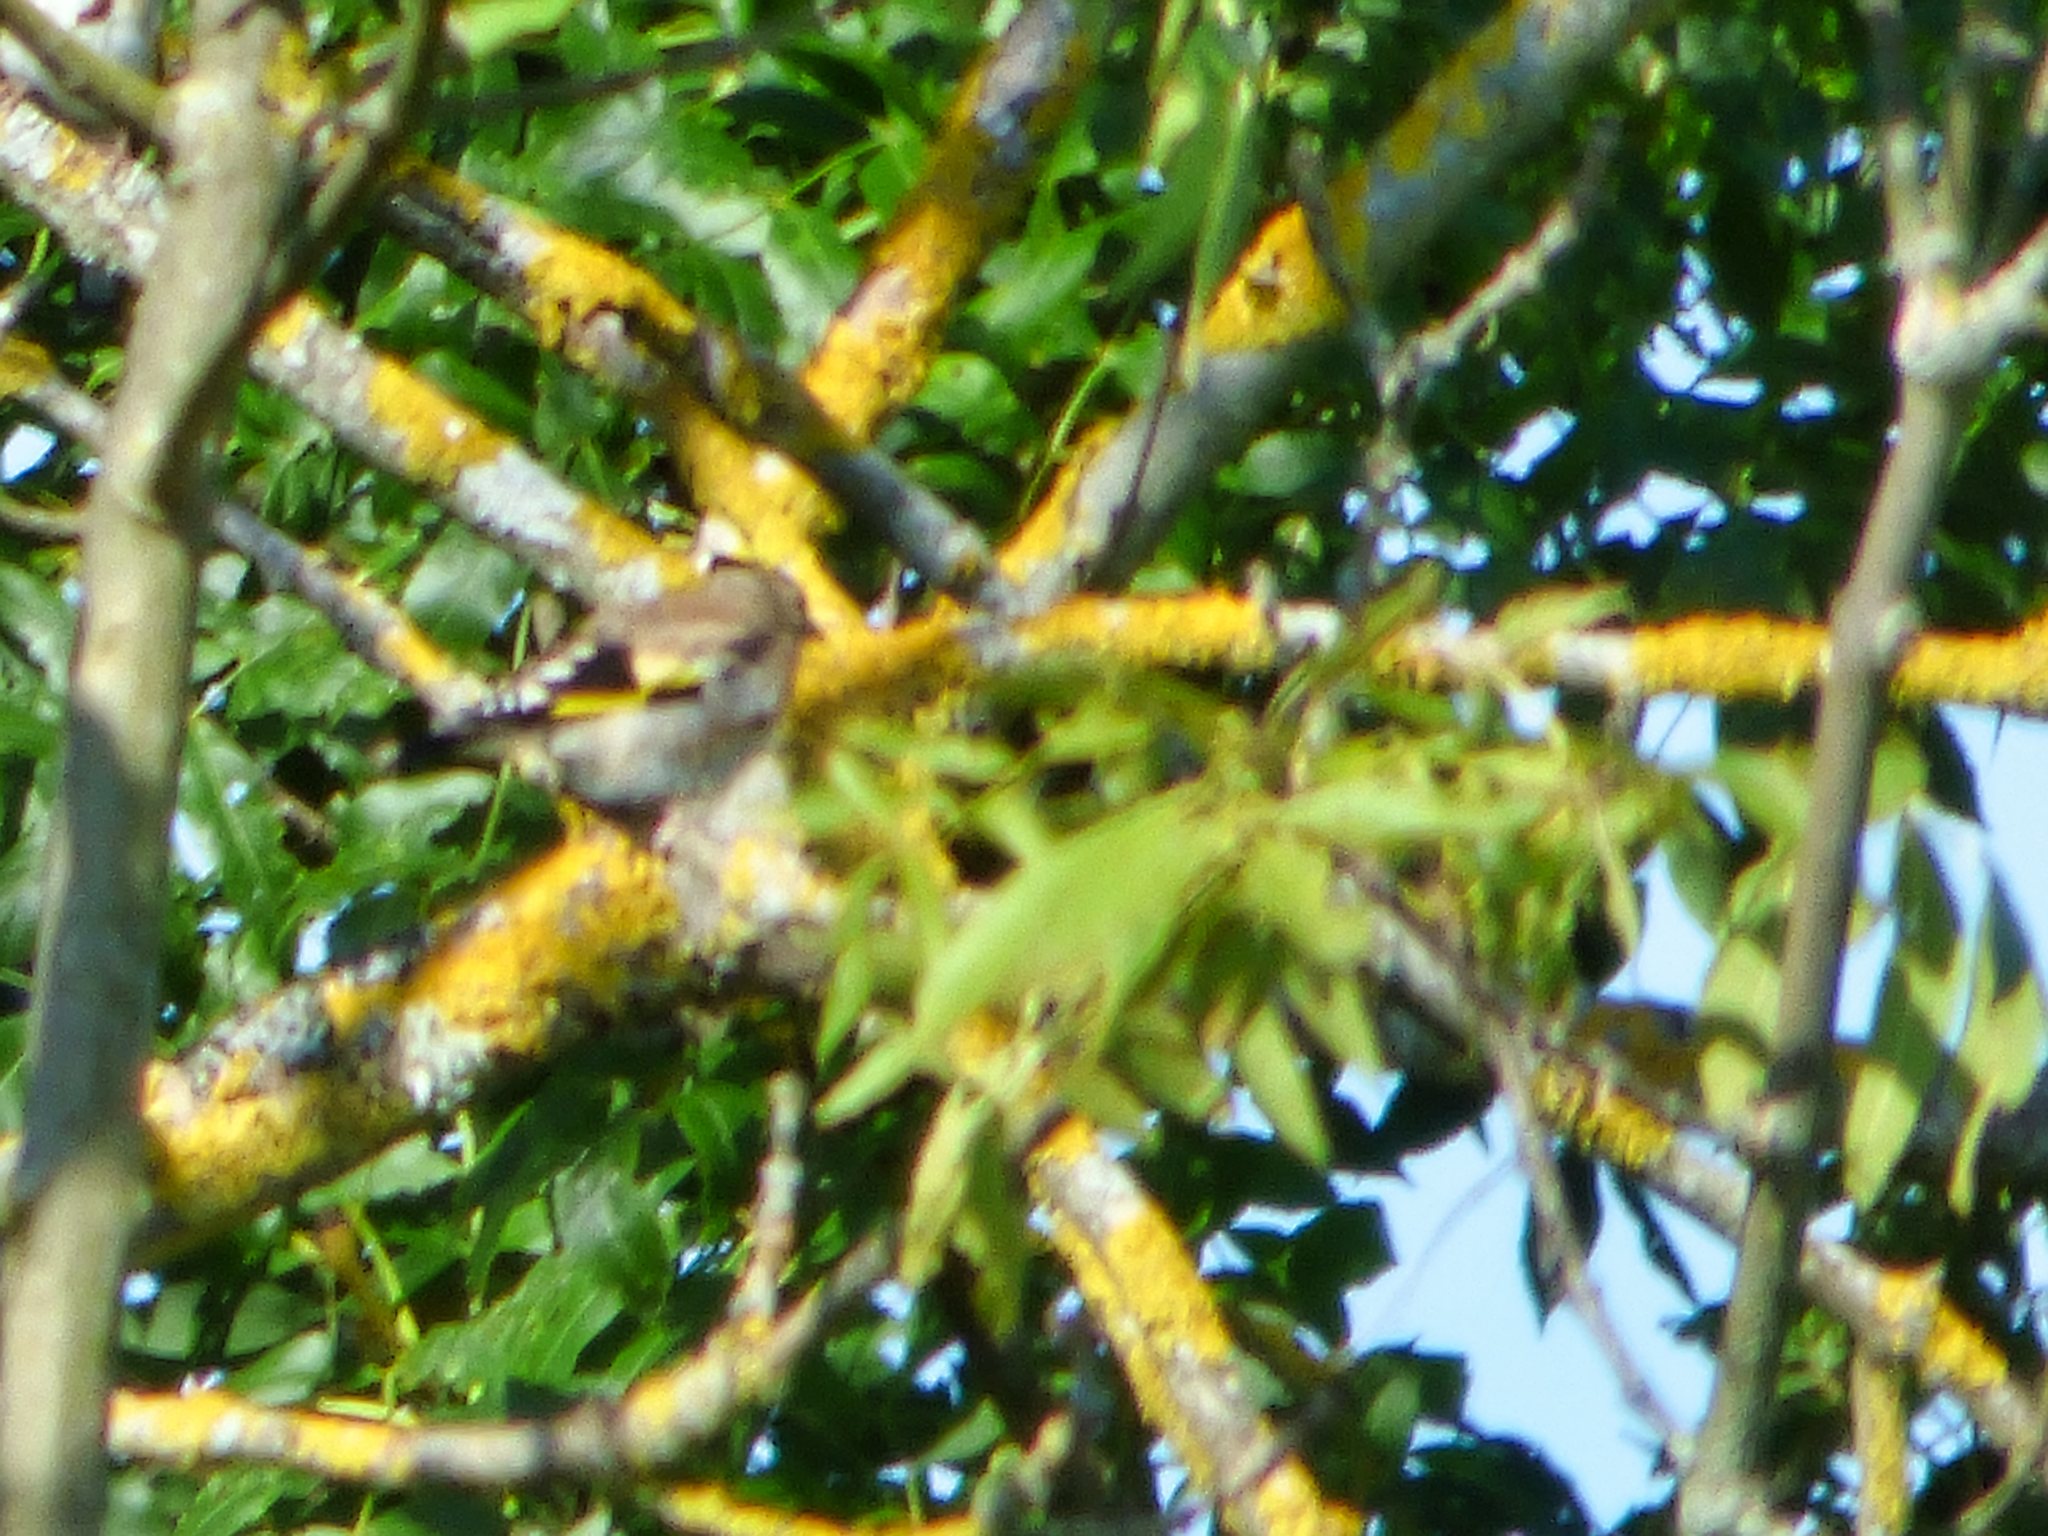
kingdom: Animalia
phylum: Chordata
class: Aves
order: Passeriformes
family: Fringillidae
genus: Carduelis
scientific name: Carduelis carduelis
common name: European goldfinch
